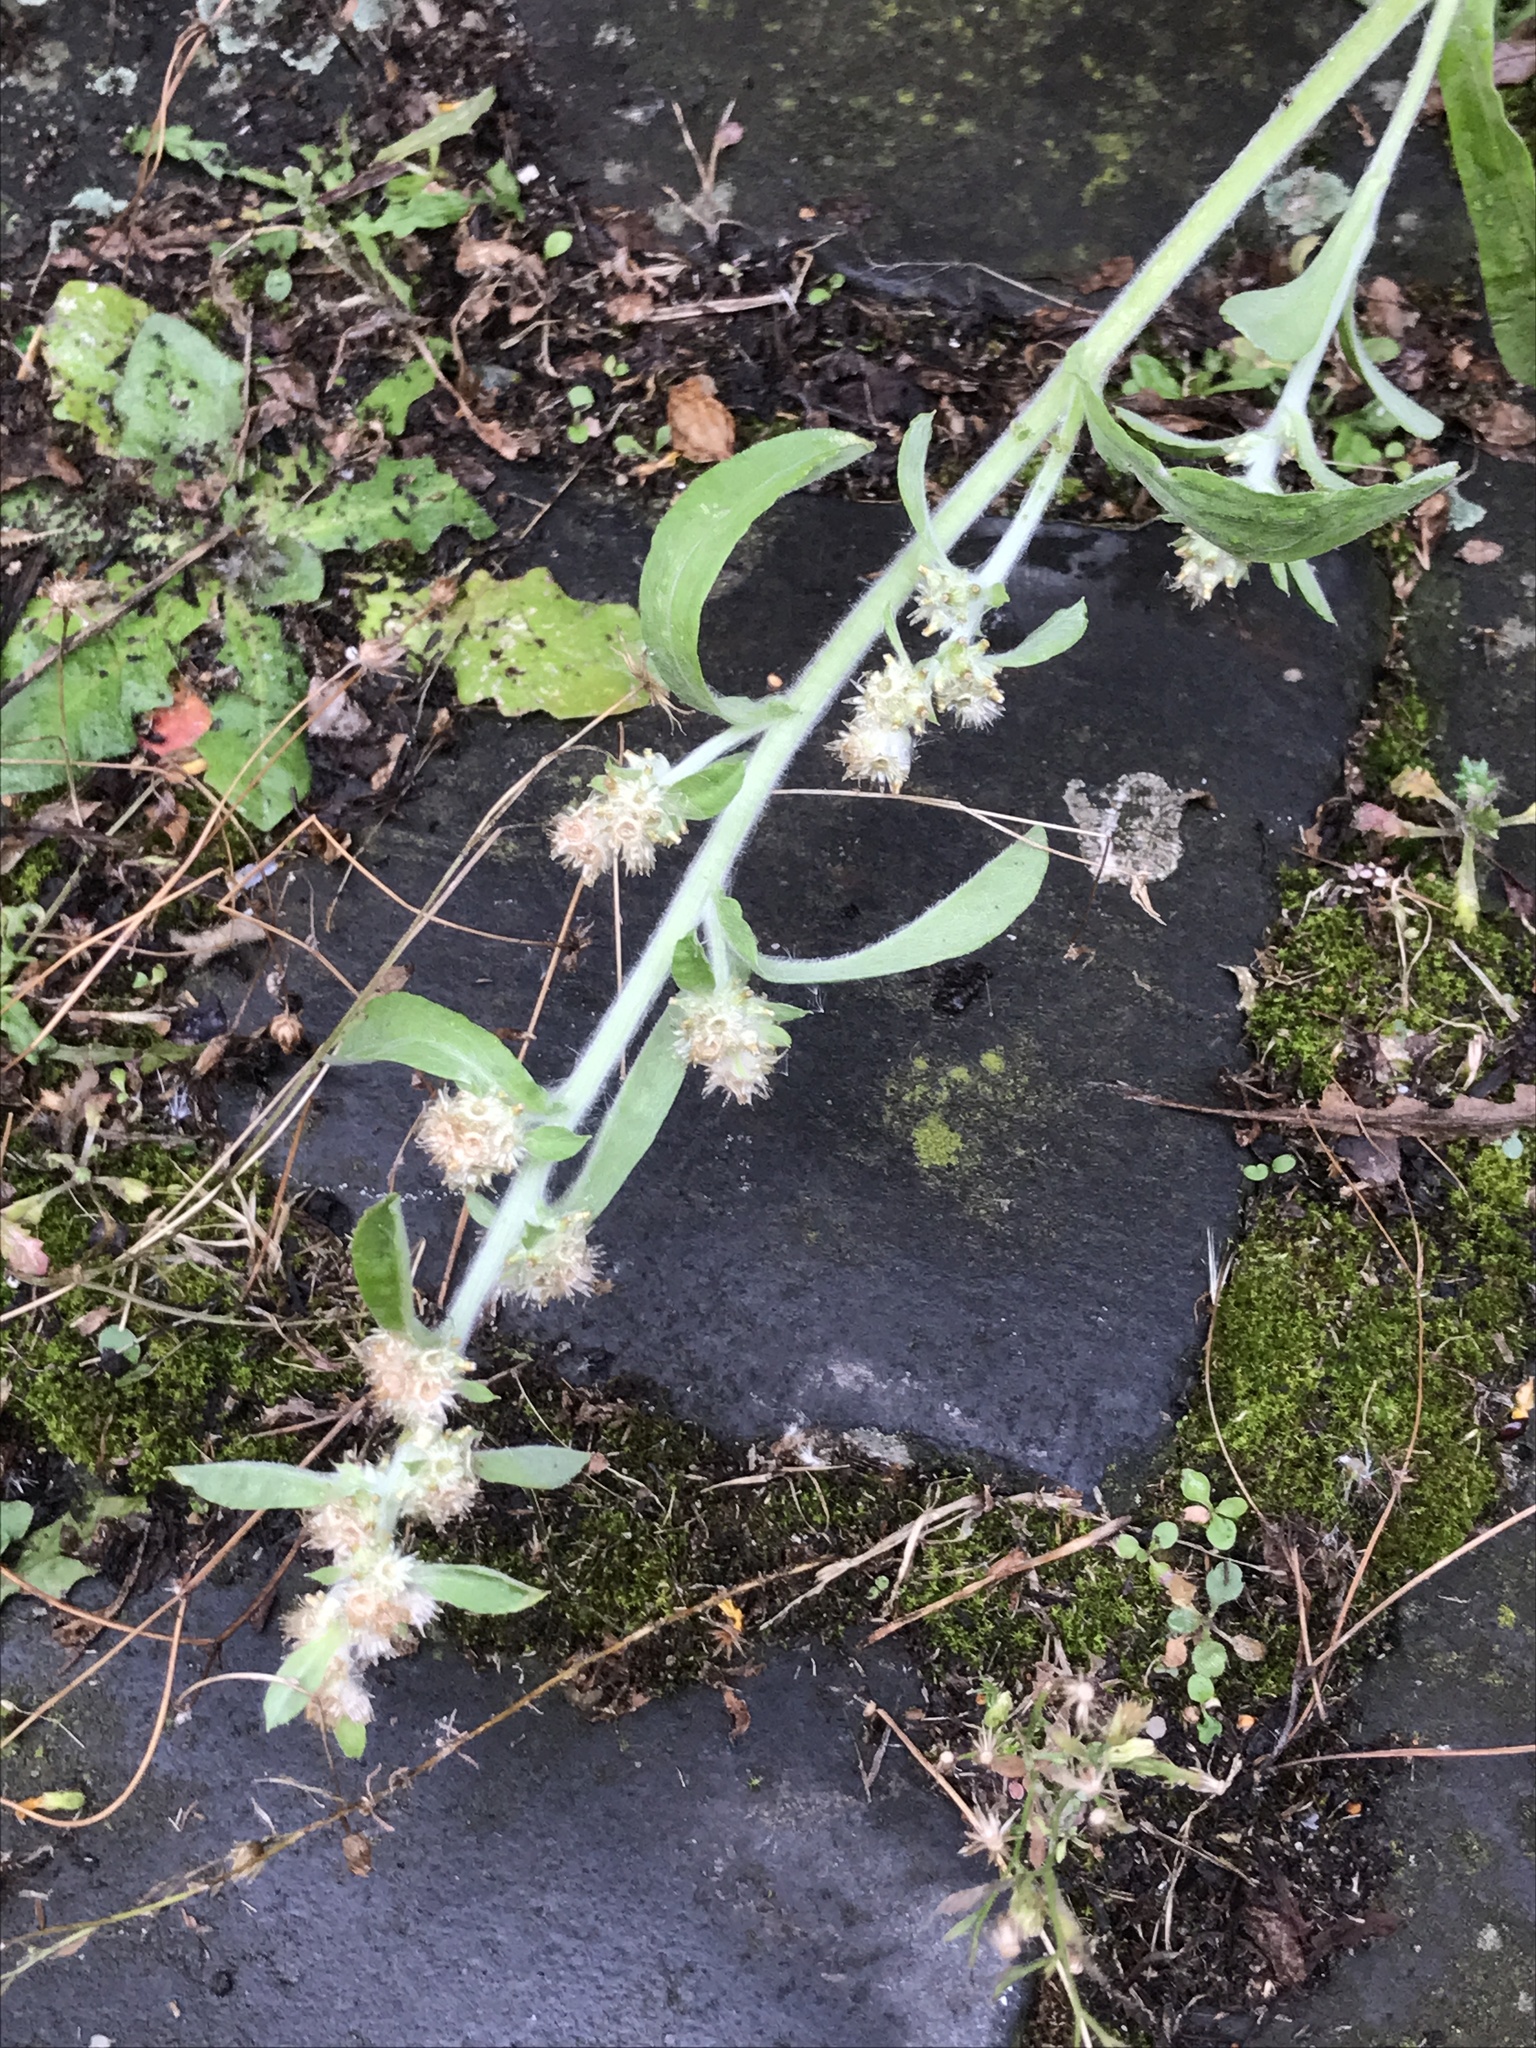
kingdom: Plantae
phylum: Tracheophyta
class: Magnoliopsida
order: Asterales
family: Asteraceae
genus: Gamochaeta
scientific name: Gamochaeta pensylvanica
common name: Pennsylvania everlasting
